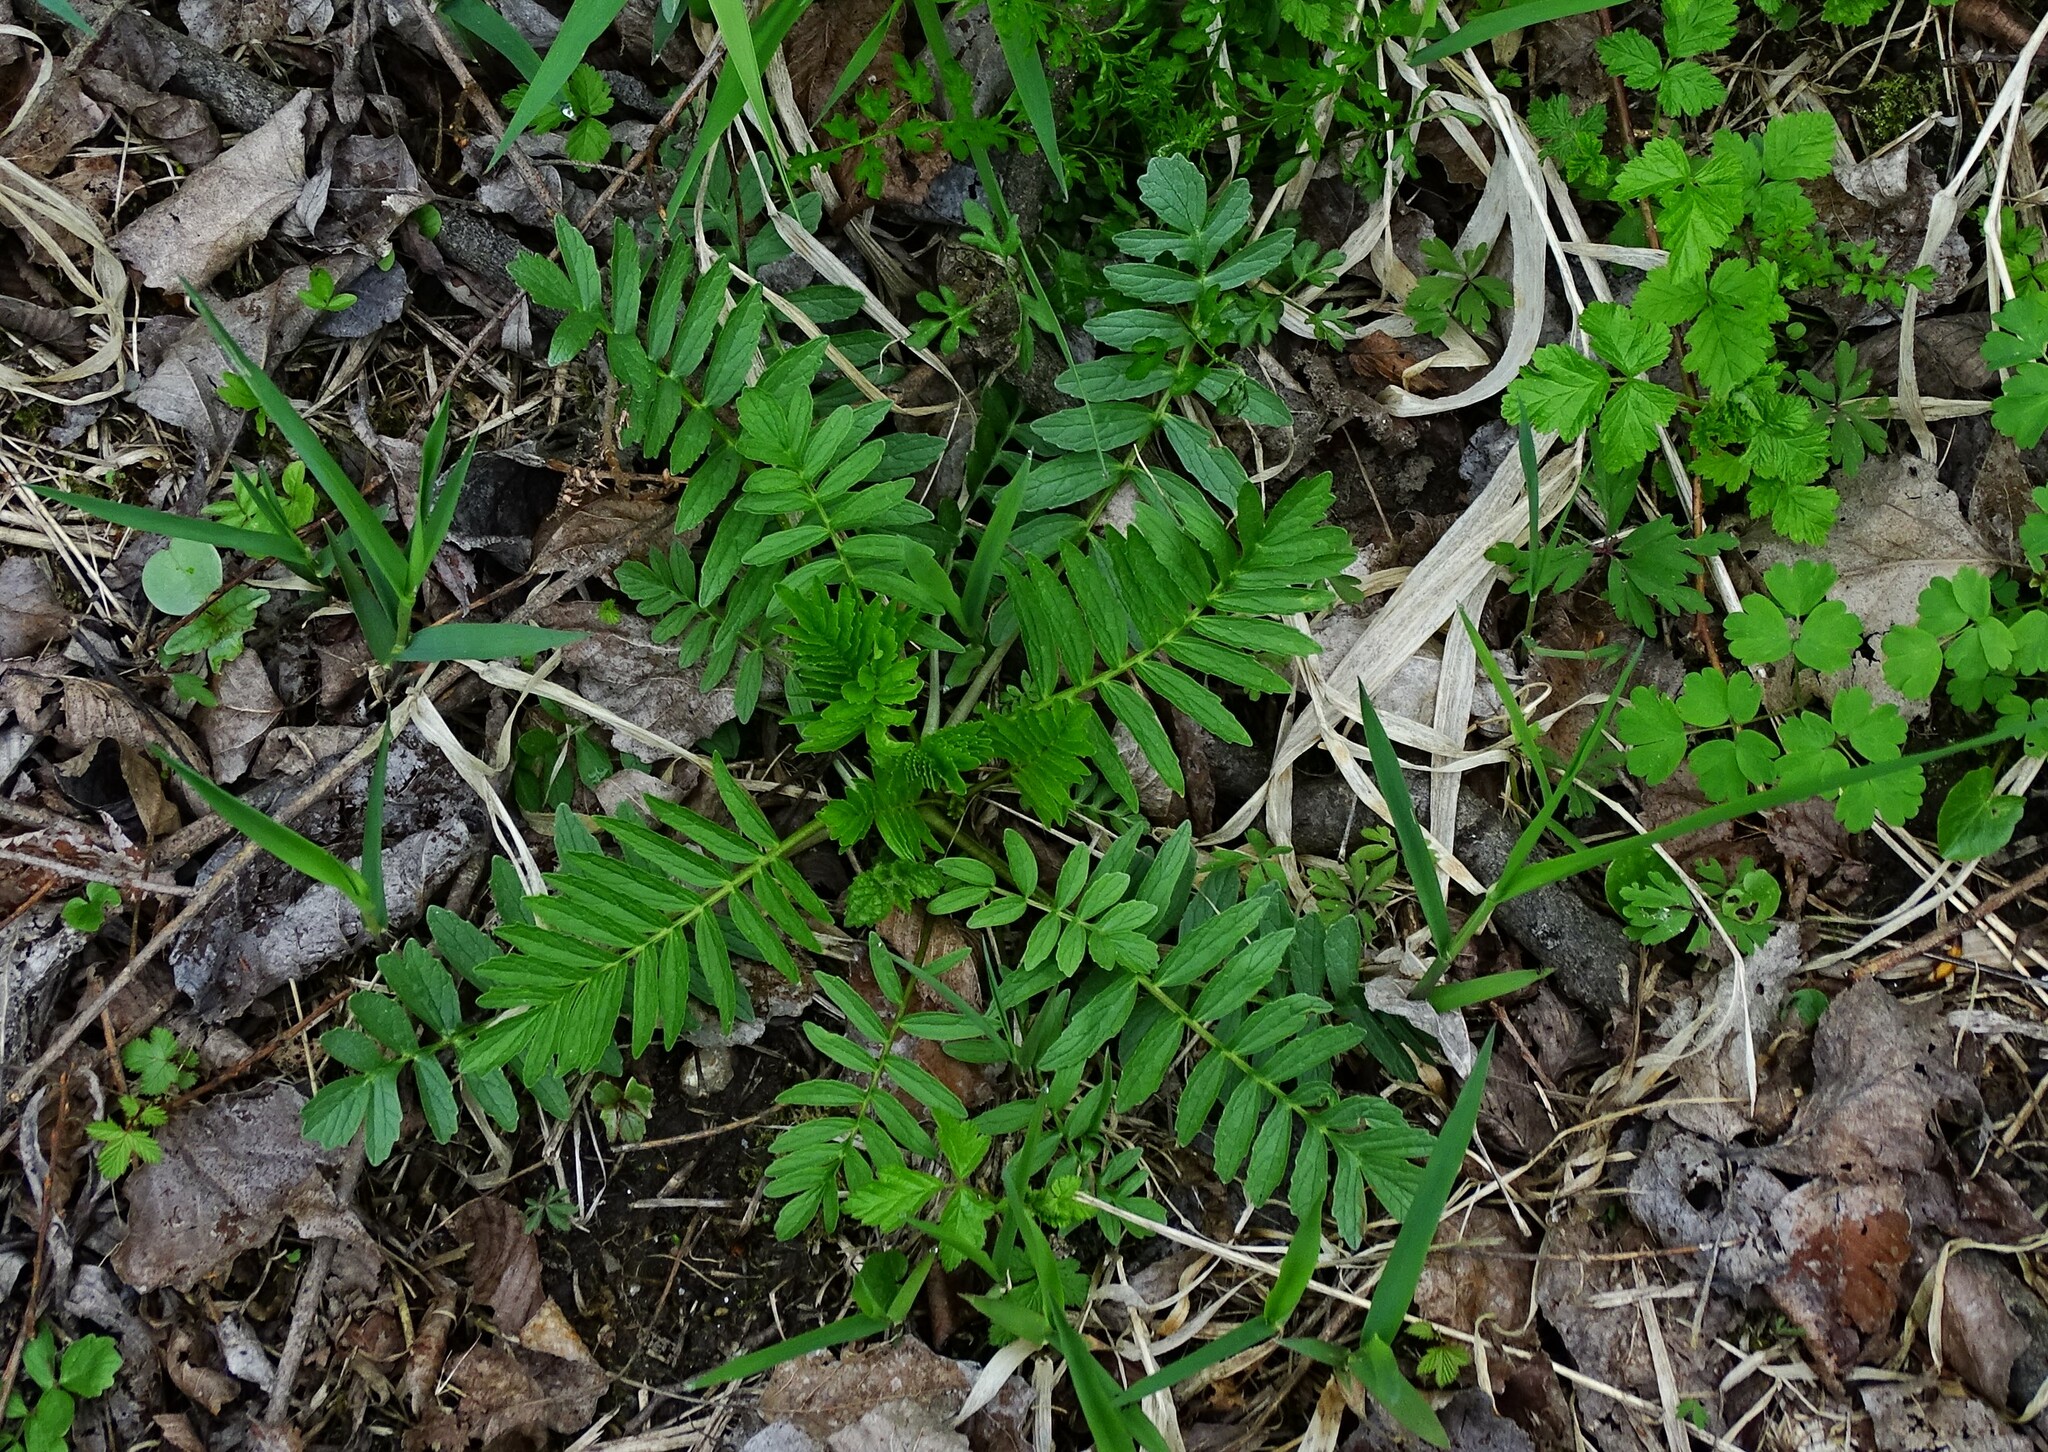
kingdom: Plantae
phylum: Tracheophyta
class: Magnoliopsida
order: Dipsacales
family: Caprifoliaceae
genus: Valeriana
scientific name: Valeriana officinalis
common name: Common valerian
